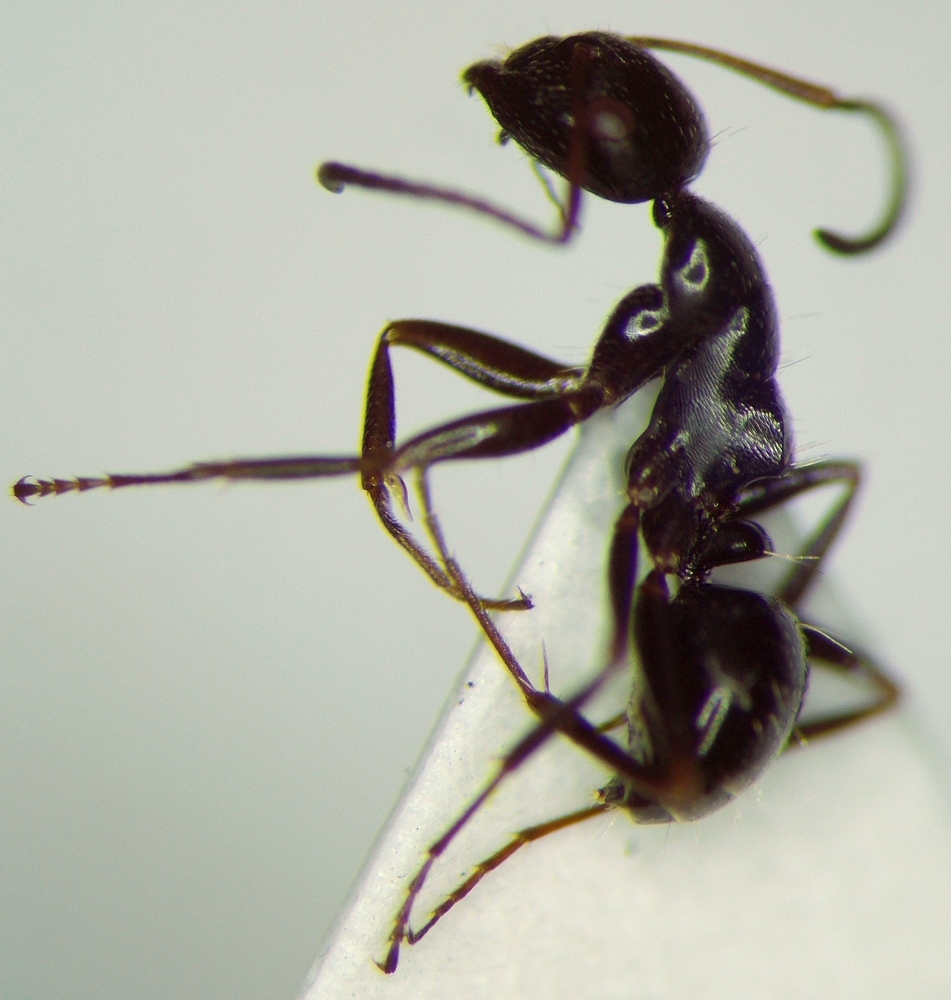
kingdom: Animalia
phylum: Arthropoda
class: Insecta
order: Hymenoptera
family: Formicidae
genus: Camponotus
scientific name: Camponotus piceus
